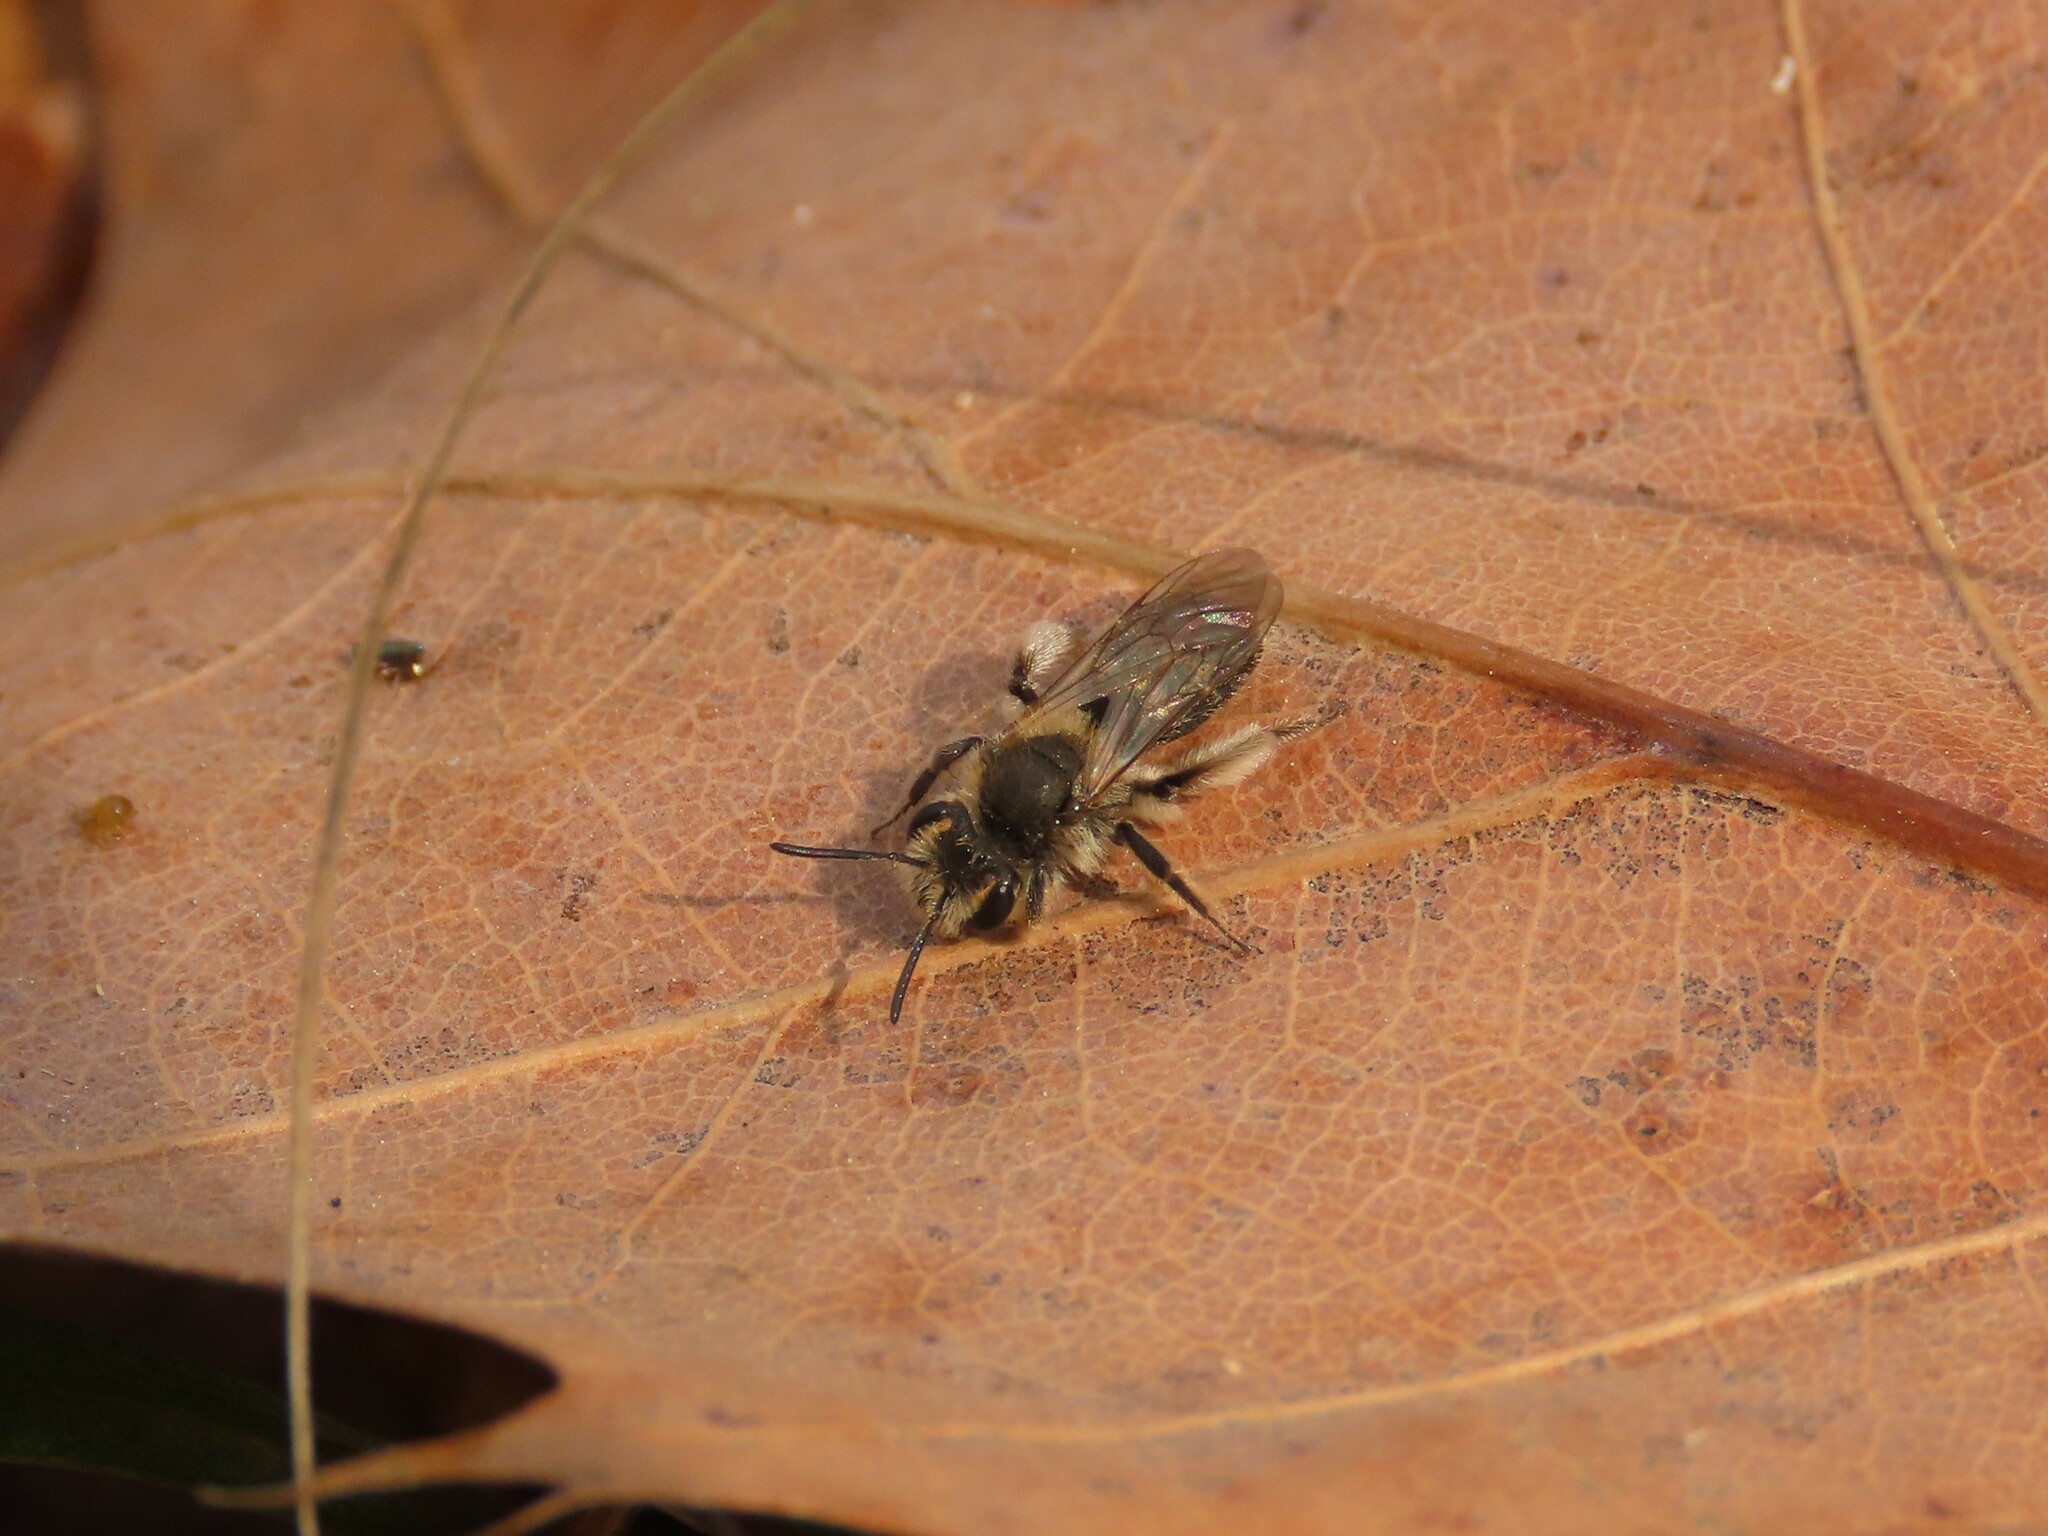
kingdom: Animalia
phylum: Arthropoda
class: Insecta
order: Hymenoptera
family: Andrenidae
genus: Andrena
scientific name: Andrena erigeniae
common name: Spring beauty miner
